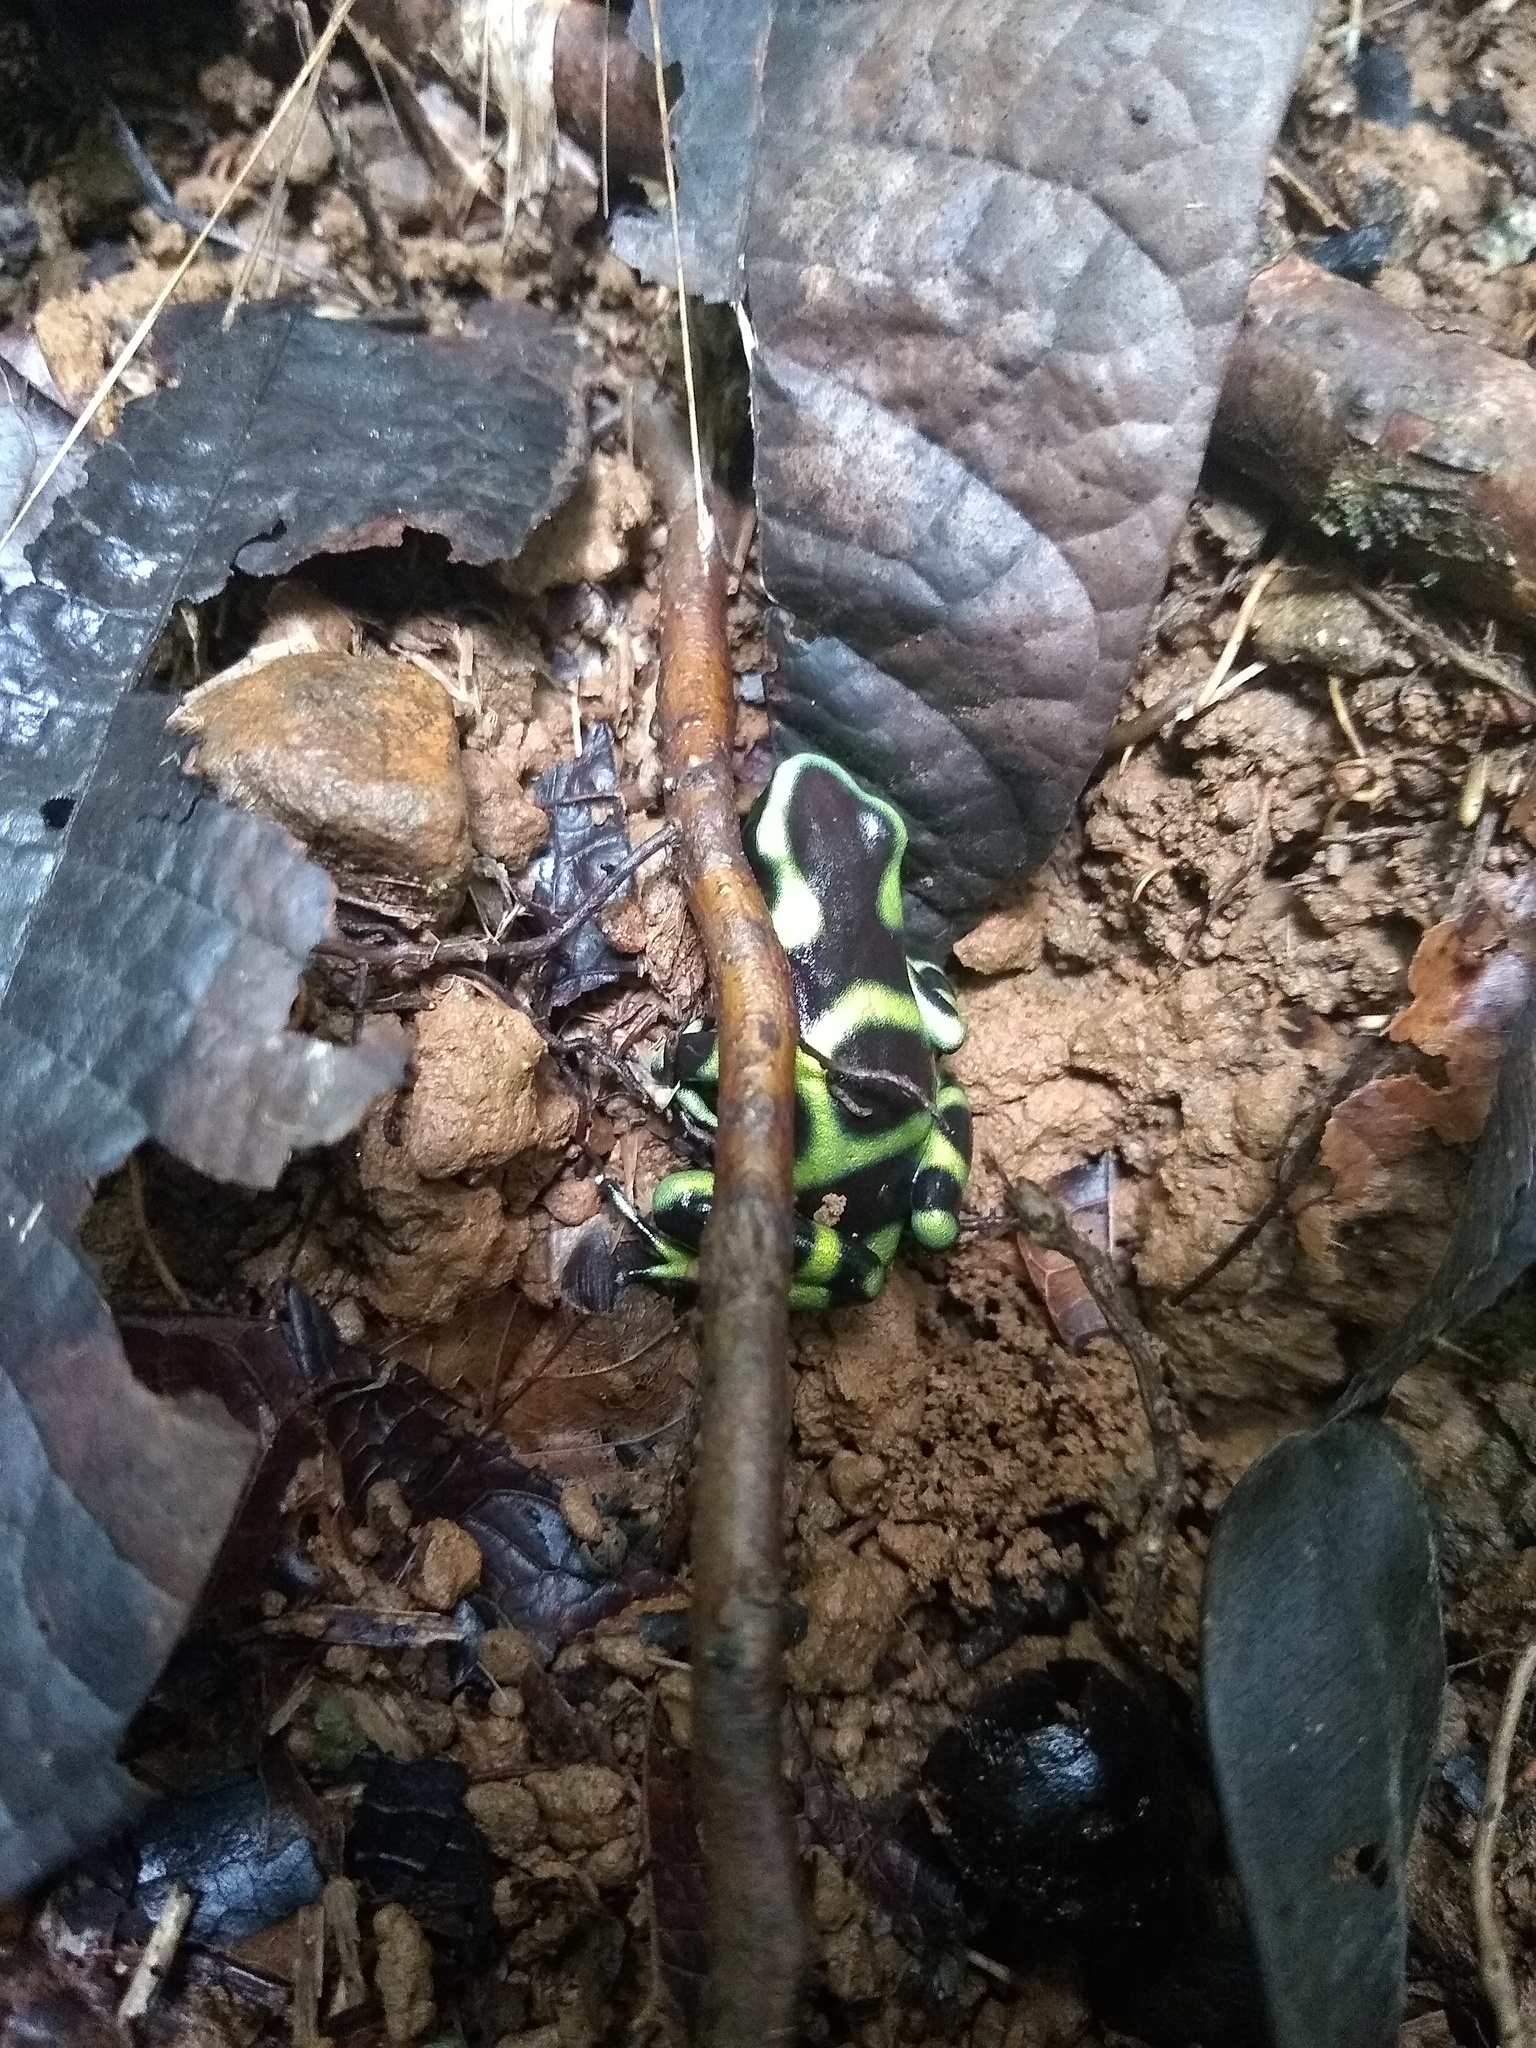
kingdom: Animalia
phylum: Chordata
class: Amphibia
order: Anura
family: Dendrobatidae
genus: Dendrobates
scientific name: Dendrobates auratus
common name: Green and black poison dart frog
